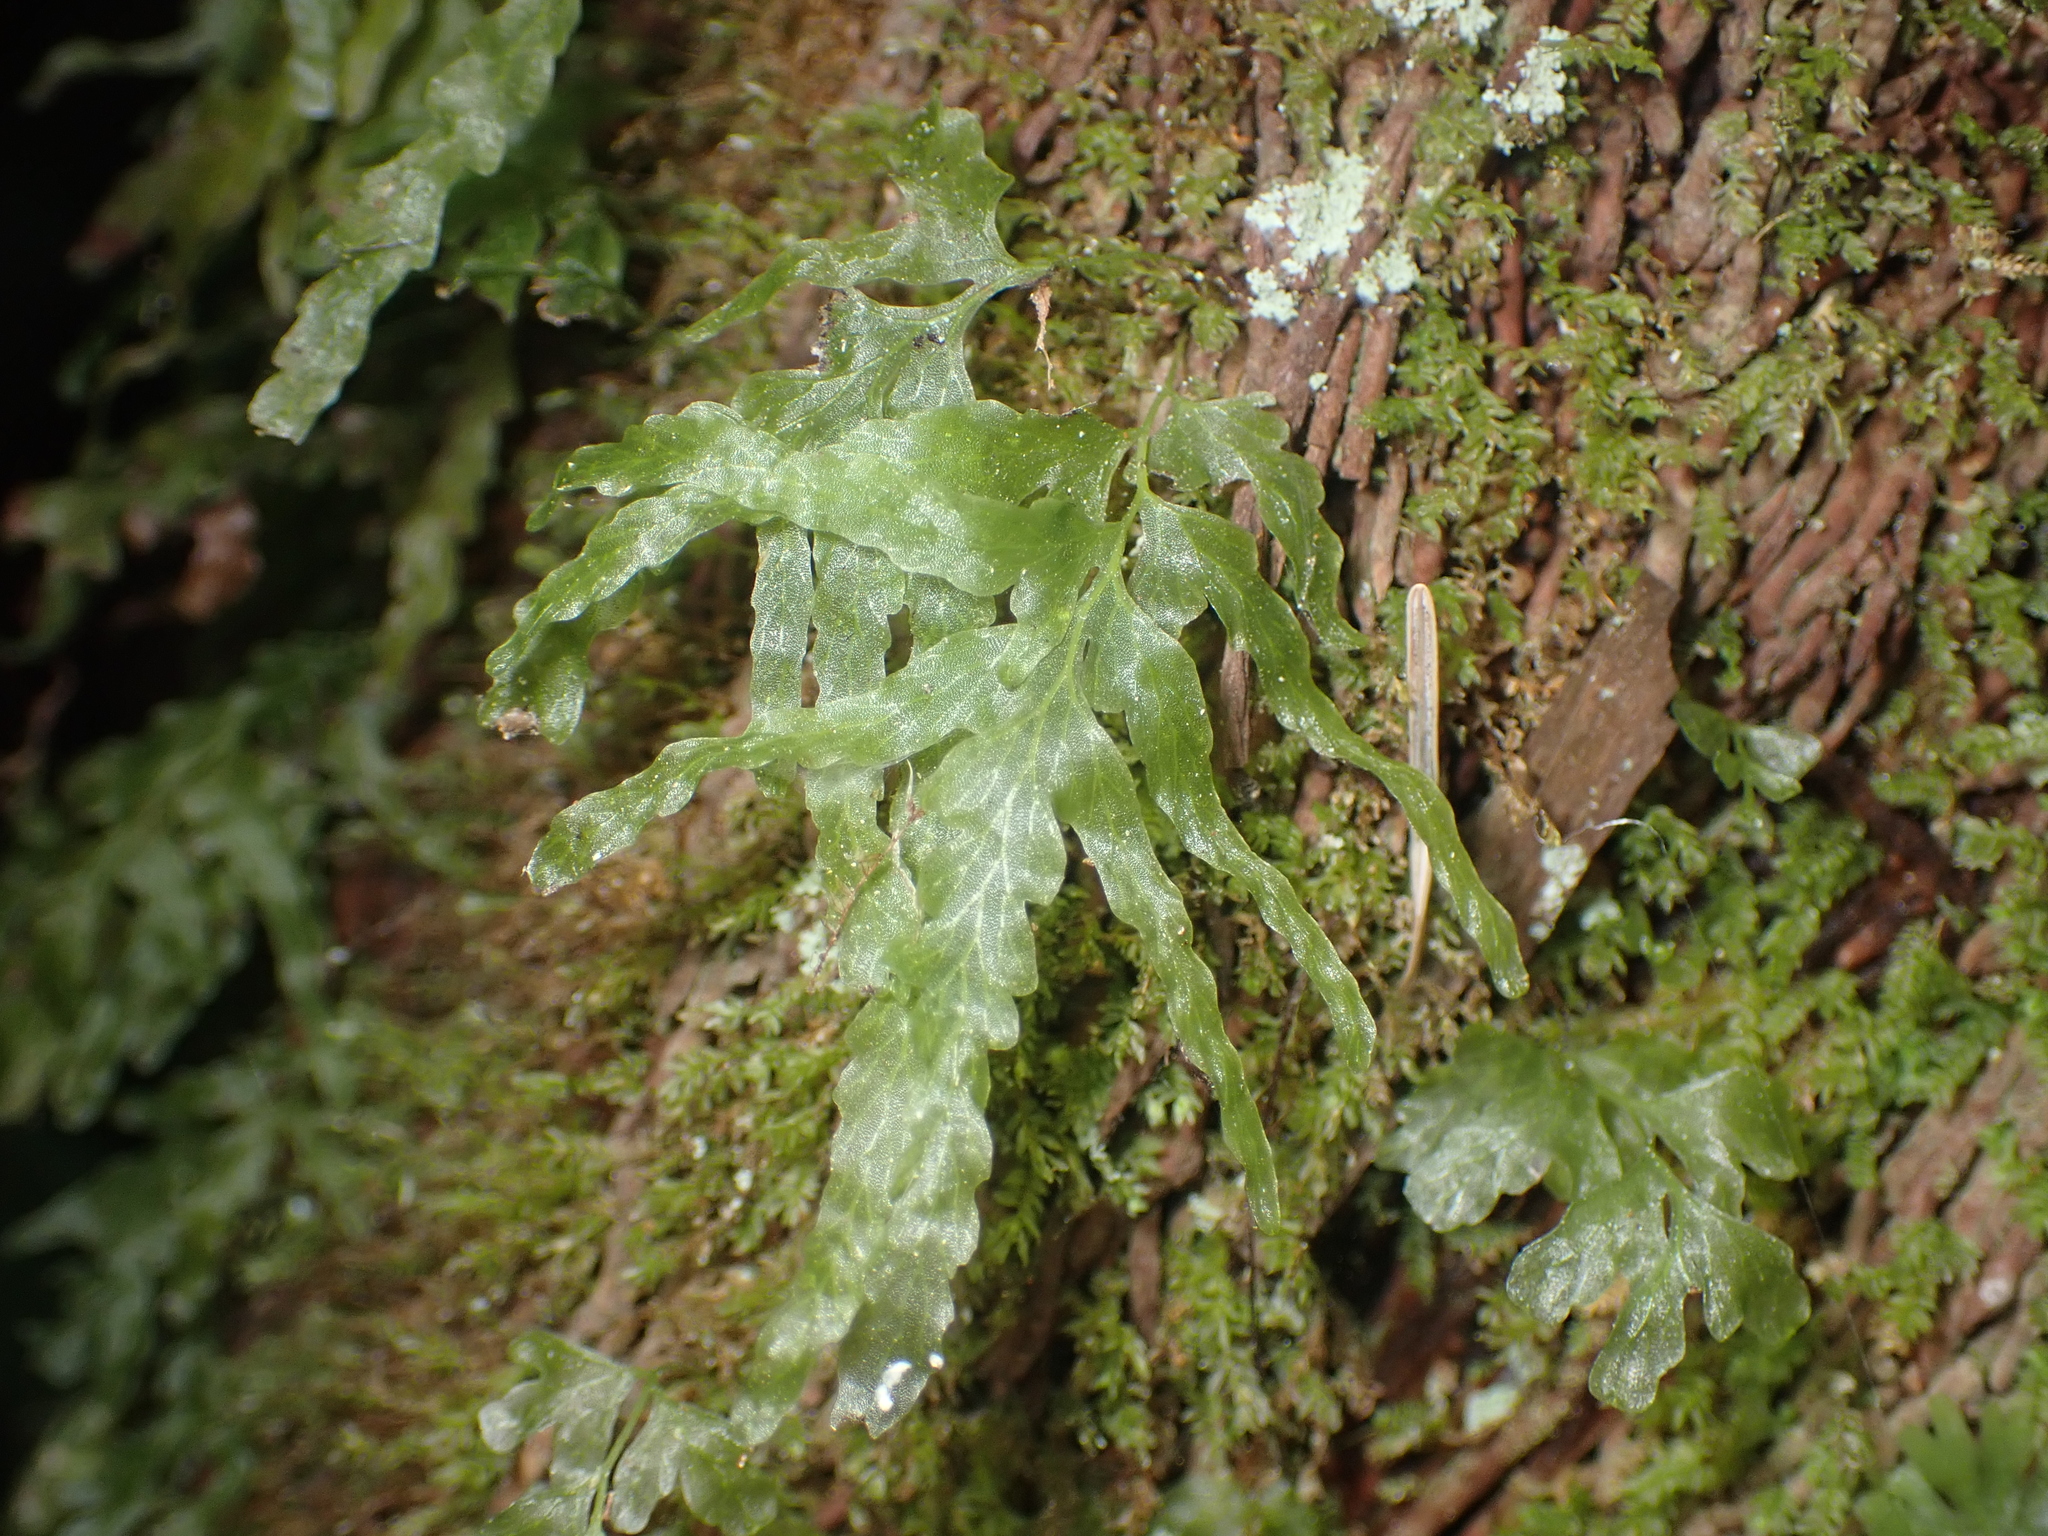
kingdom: Plantae
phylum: Tracheophyta
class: Polypodiopsida
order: Hymenophyllales
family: Hymenophyllaceae
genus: Polyphlebium
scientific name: Polyphlebium venosum
